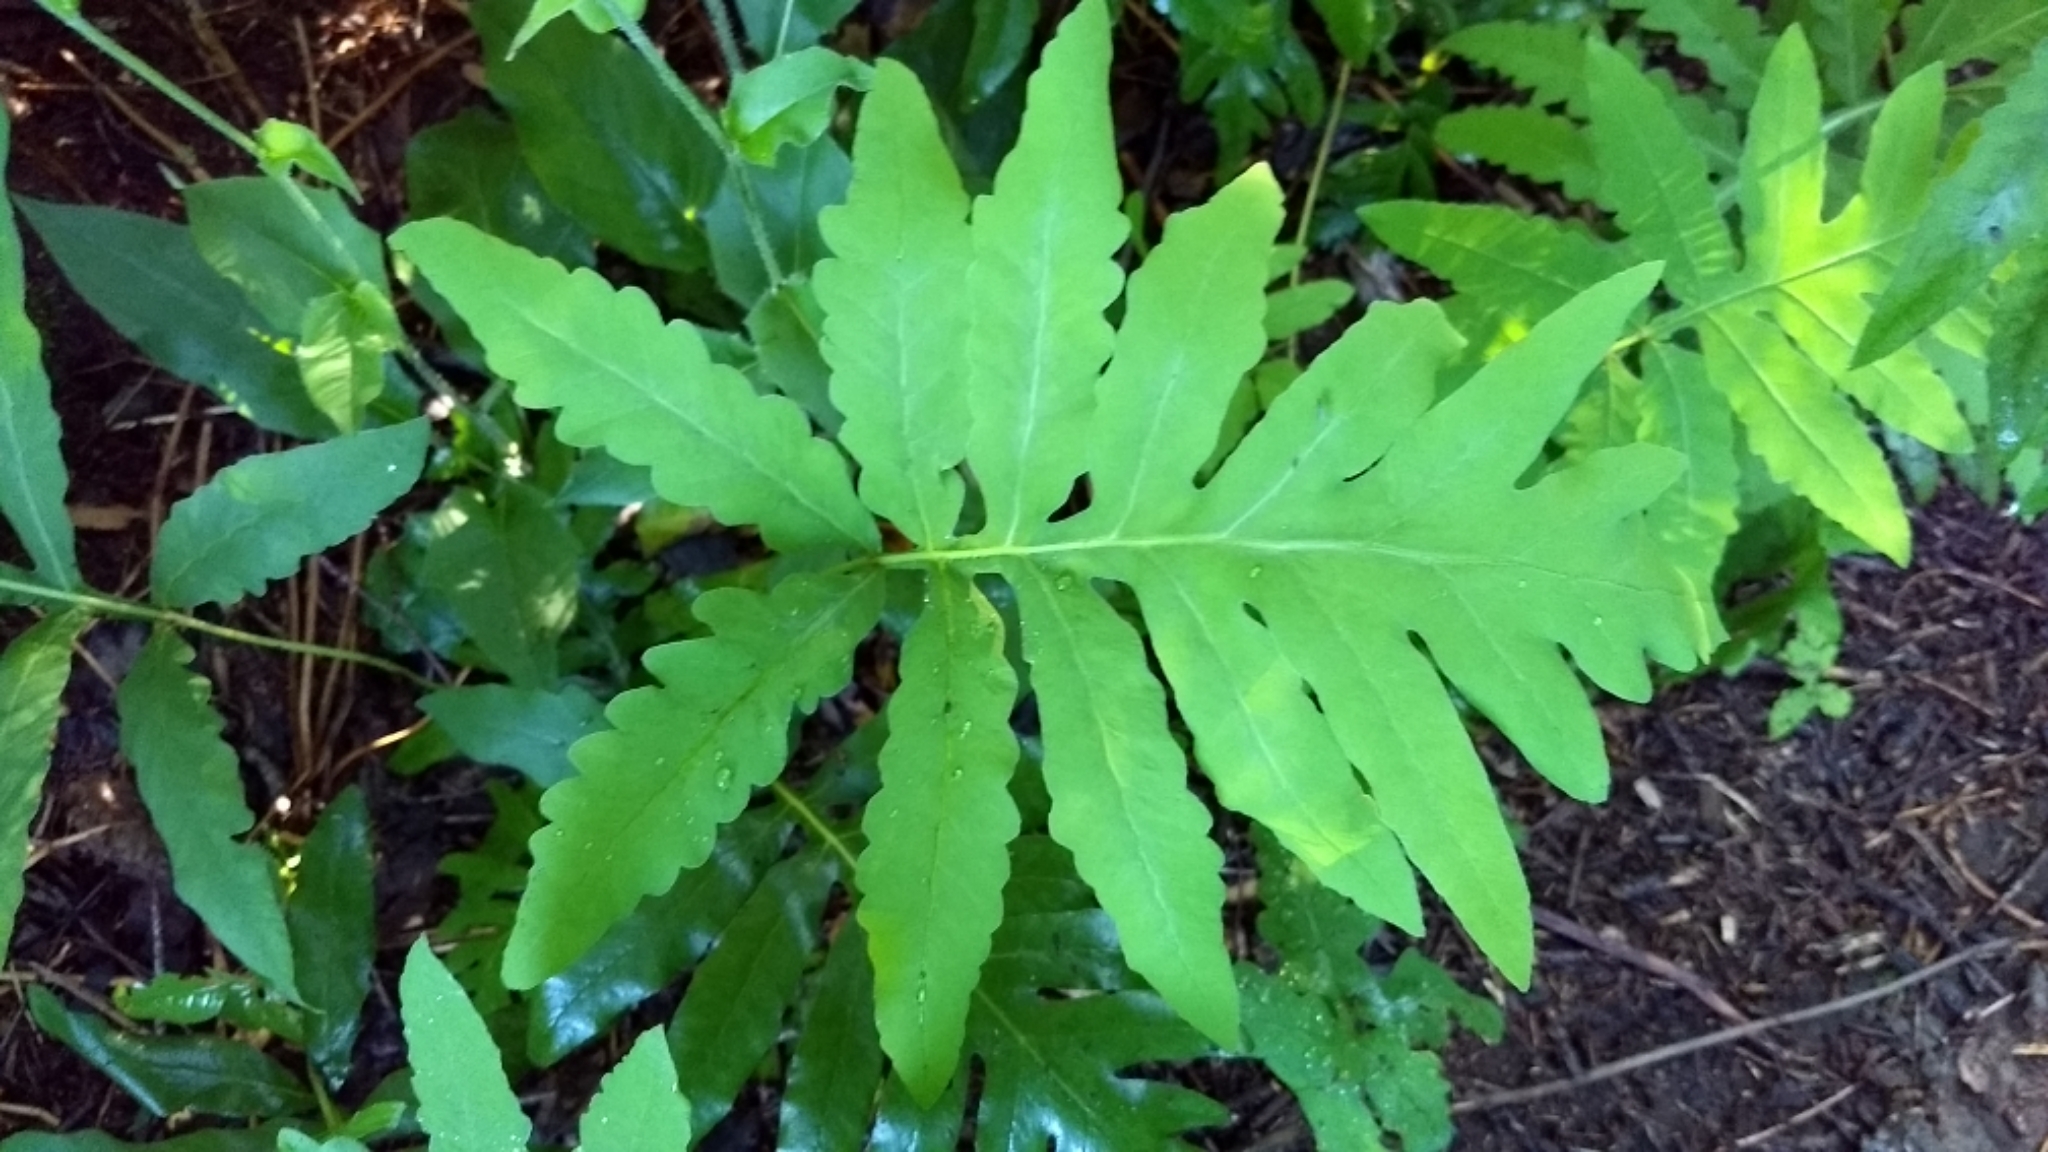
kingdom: Plantae
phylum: Tracheophyta
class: Polypodiopsida
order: Polypodiales
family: Onocleaceae
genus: Onoclea
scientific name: Onoclea sensibilis
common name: Sensitive fern
